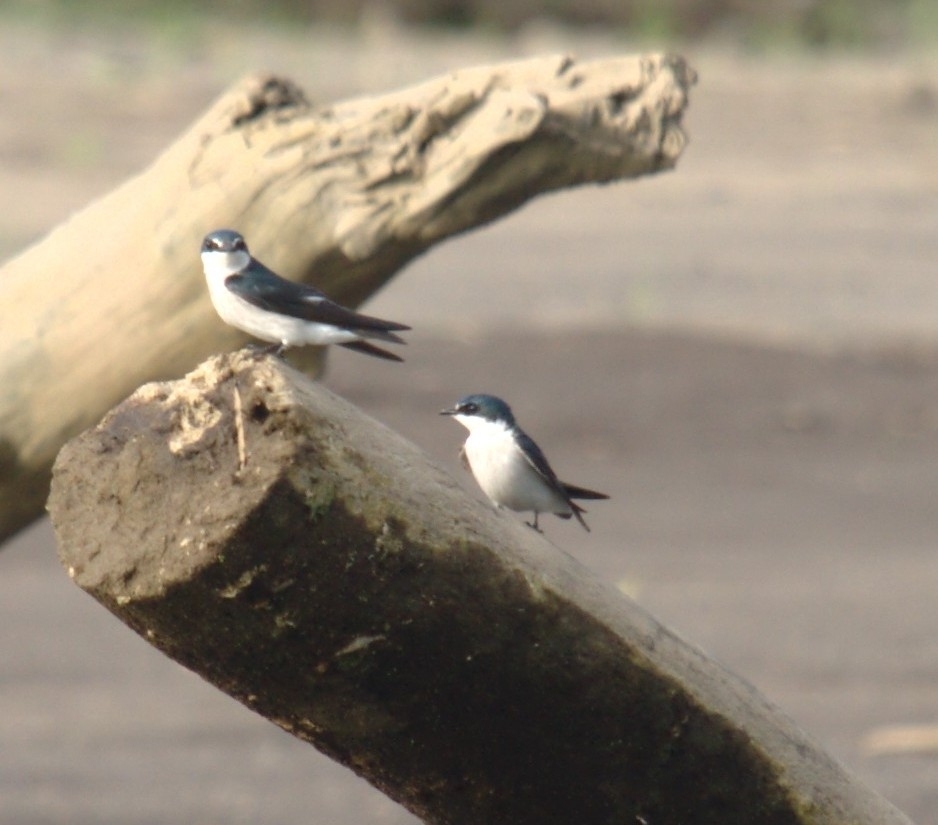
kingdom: Animalia
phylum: Chordata
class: Aves
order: Passeriformes
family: Hirundinidae
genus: Tachycineta
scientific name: Tachycineta albilinea
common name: Mangrove swallow
